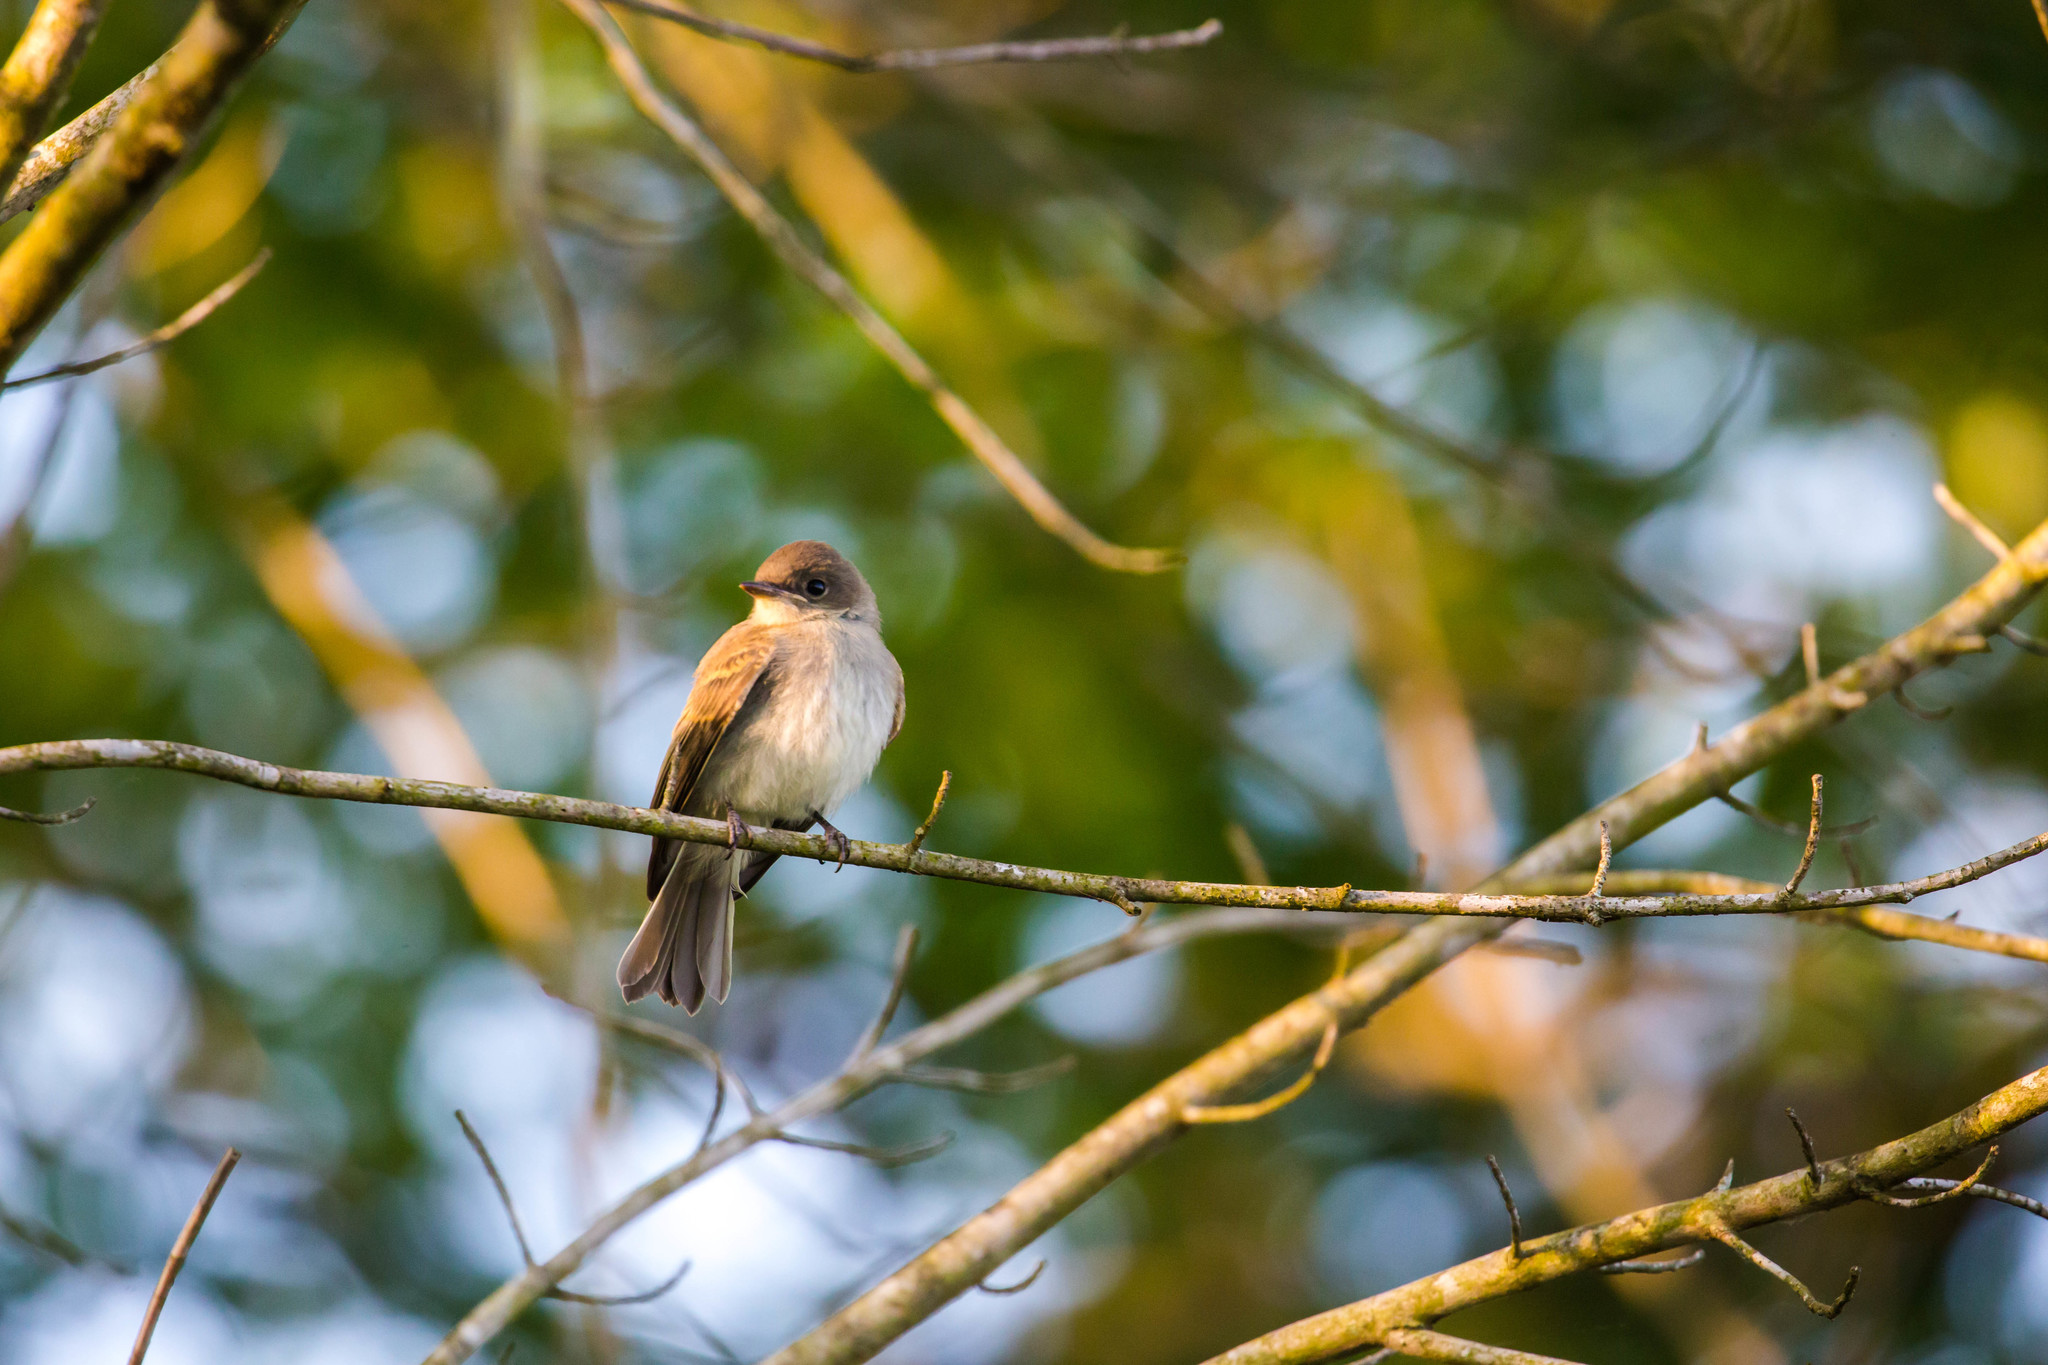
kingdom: Animalia
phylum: Chordata
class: Aves
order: Passeriformes
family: Tyrannidae
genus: Contopus
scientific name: Contopus virens
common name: Eastern wood-pewee
